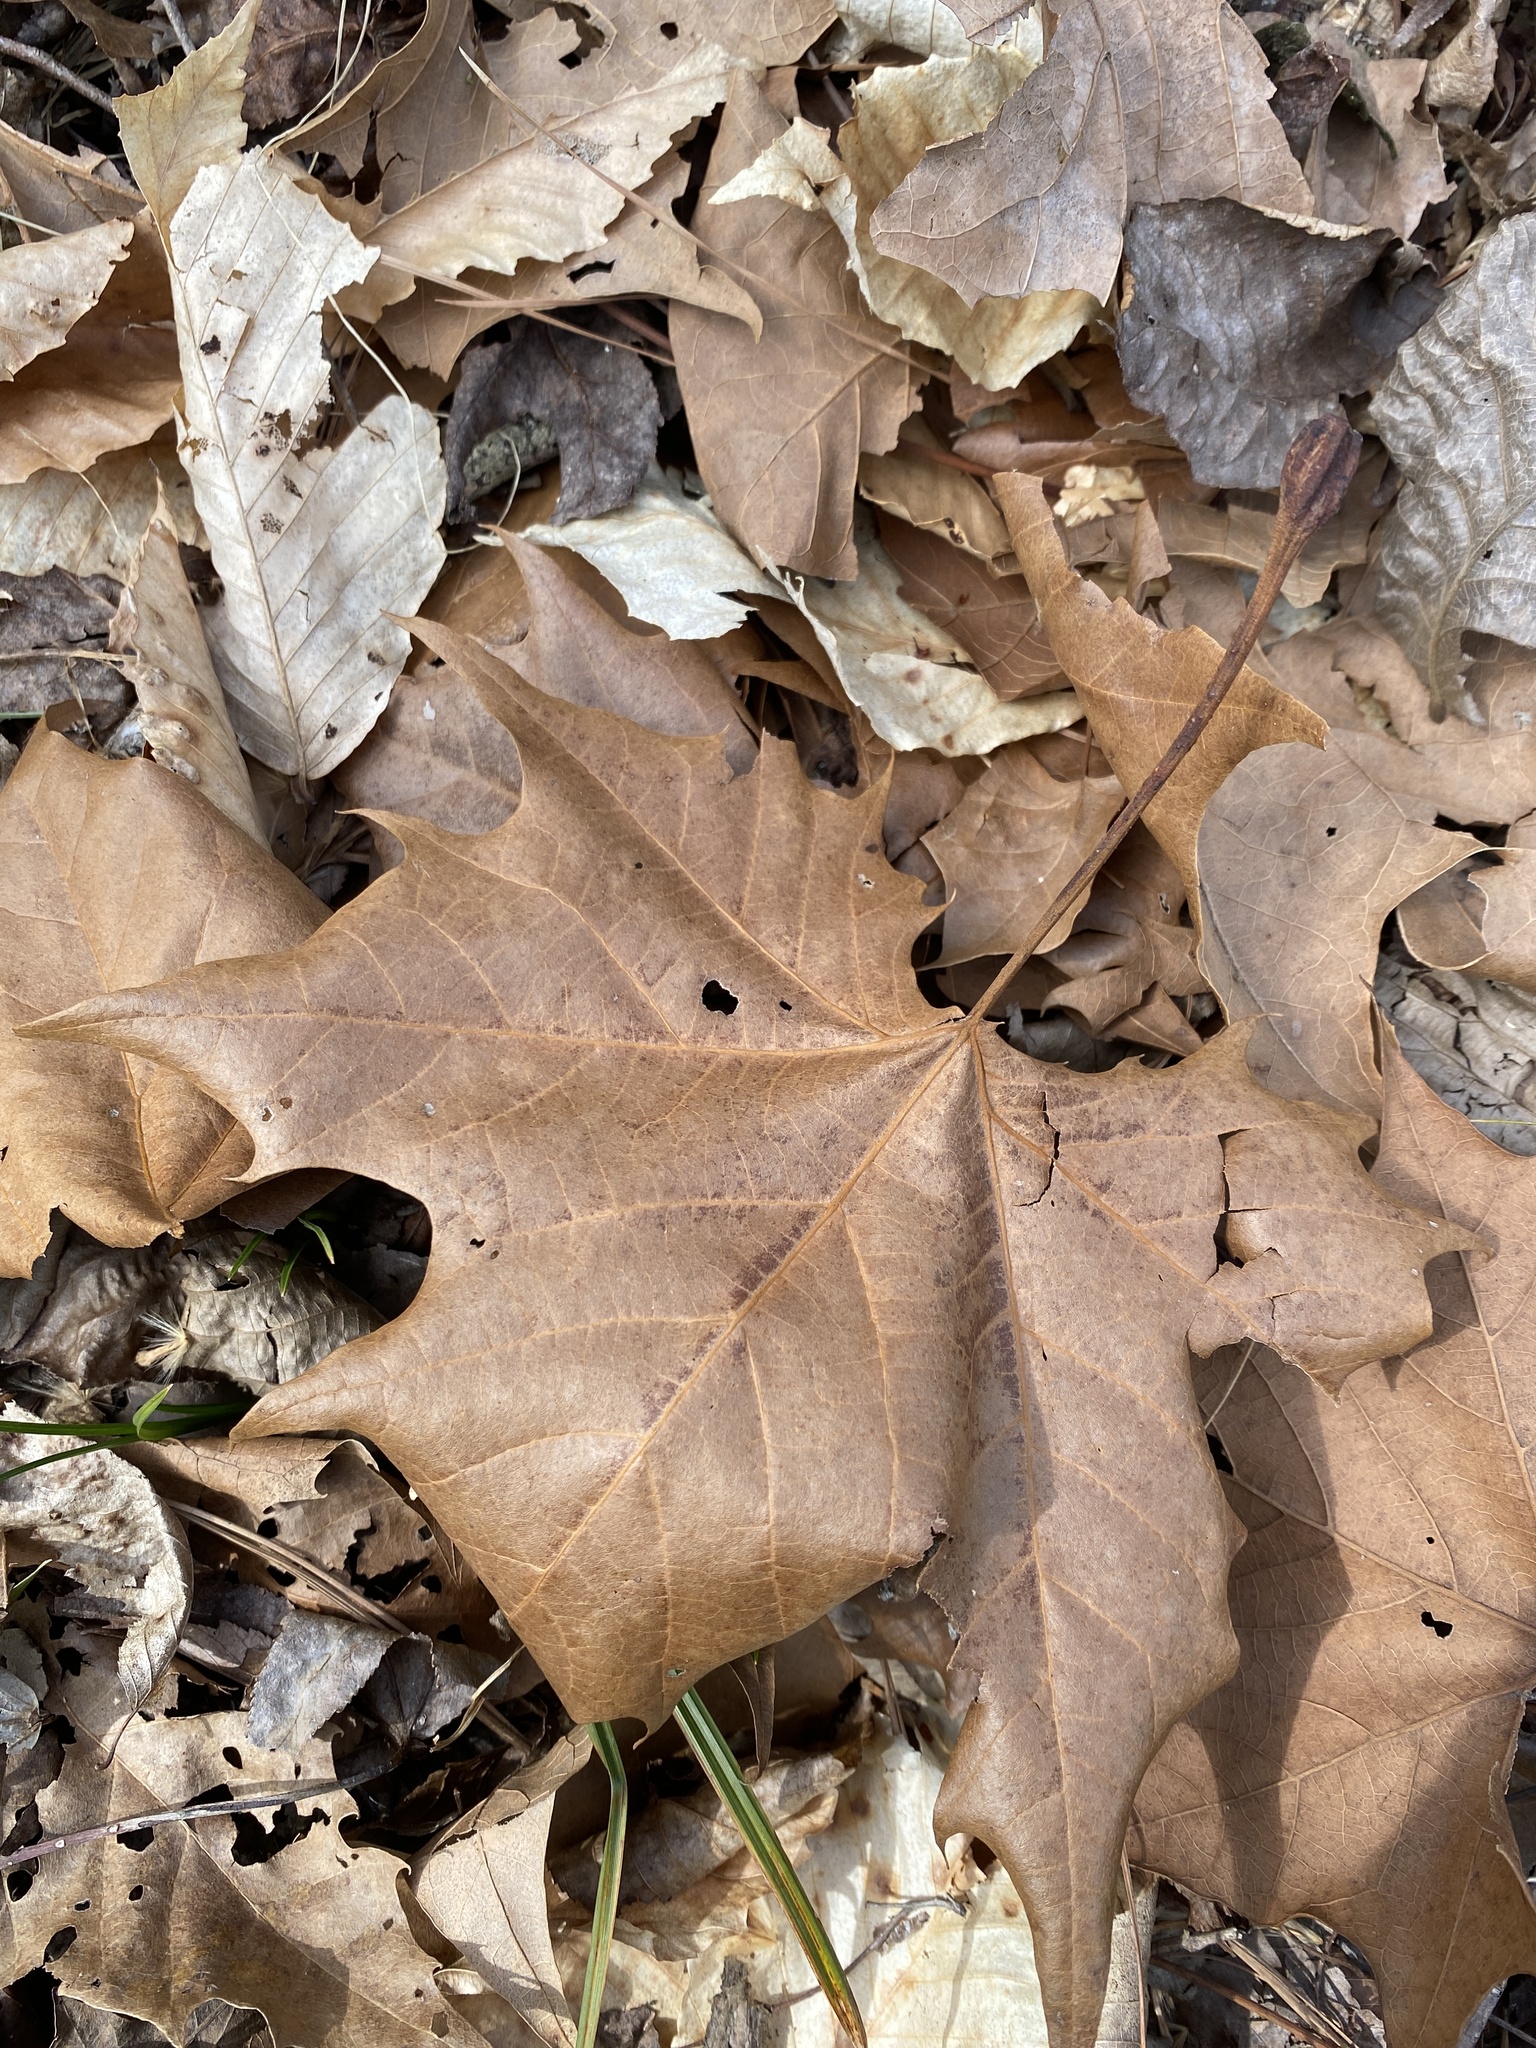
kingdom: Plantae
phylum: Tracheophyta
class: Magnoliopsida
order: Proteales
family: Platanaceae
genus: Platanus
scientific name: Platanus occidentalis
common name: American sycamore
